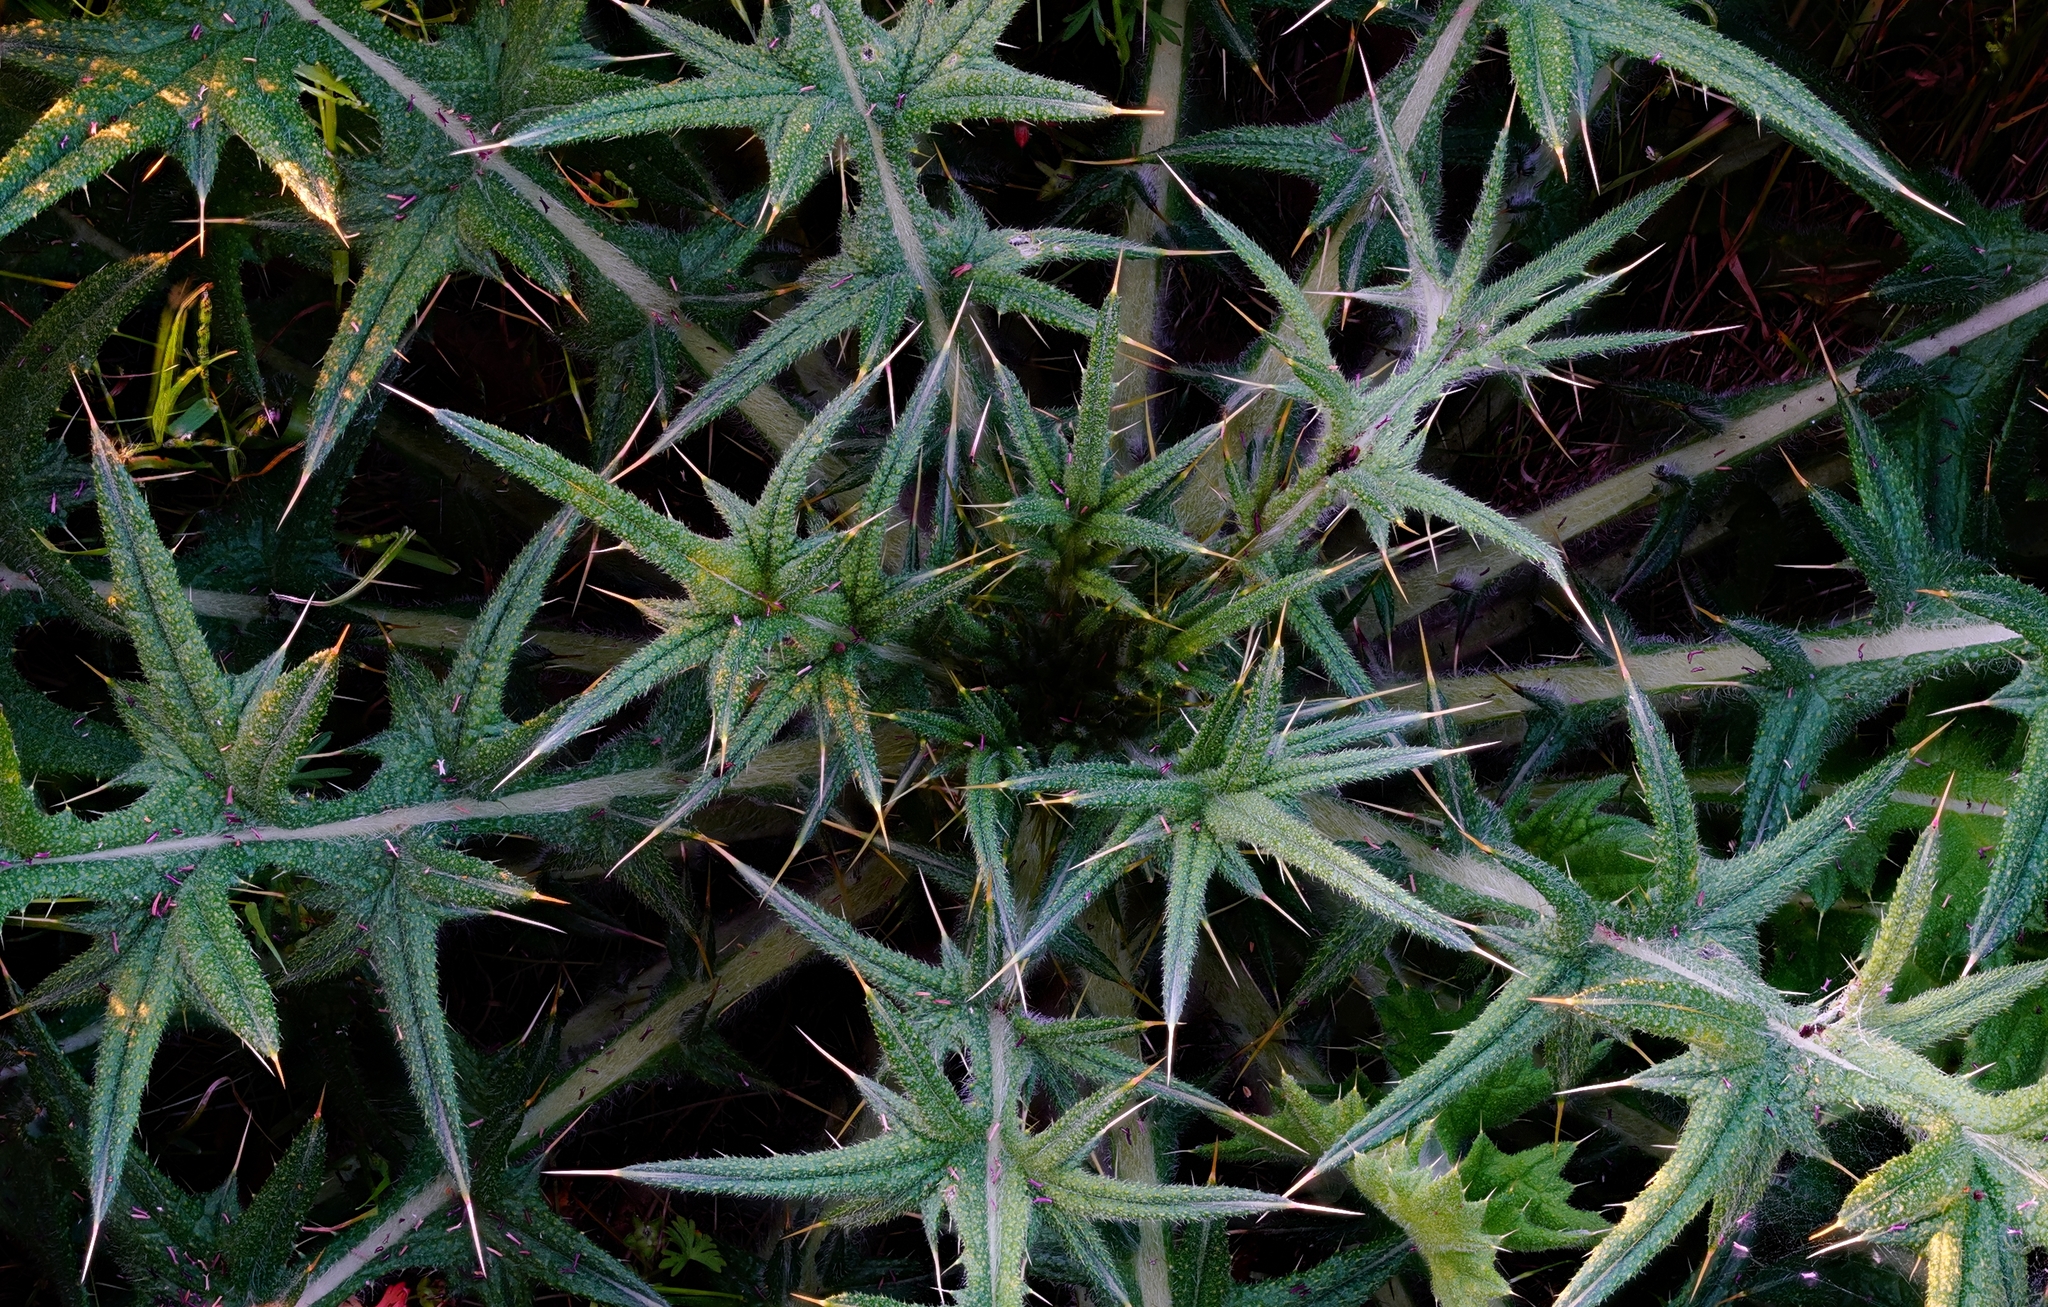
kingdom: Plantae
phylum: Tracheophyta
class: Magnoliopsida
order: Asterales
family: Asteraceae
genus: Cirsium
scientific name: Cirsium vulgare
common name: Bull thistle
